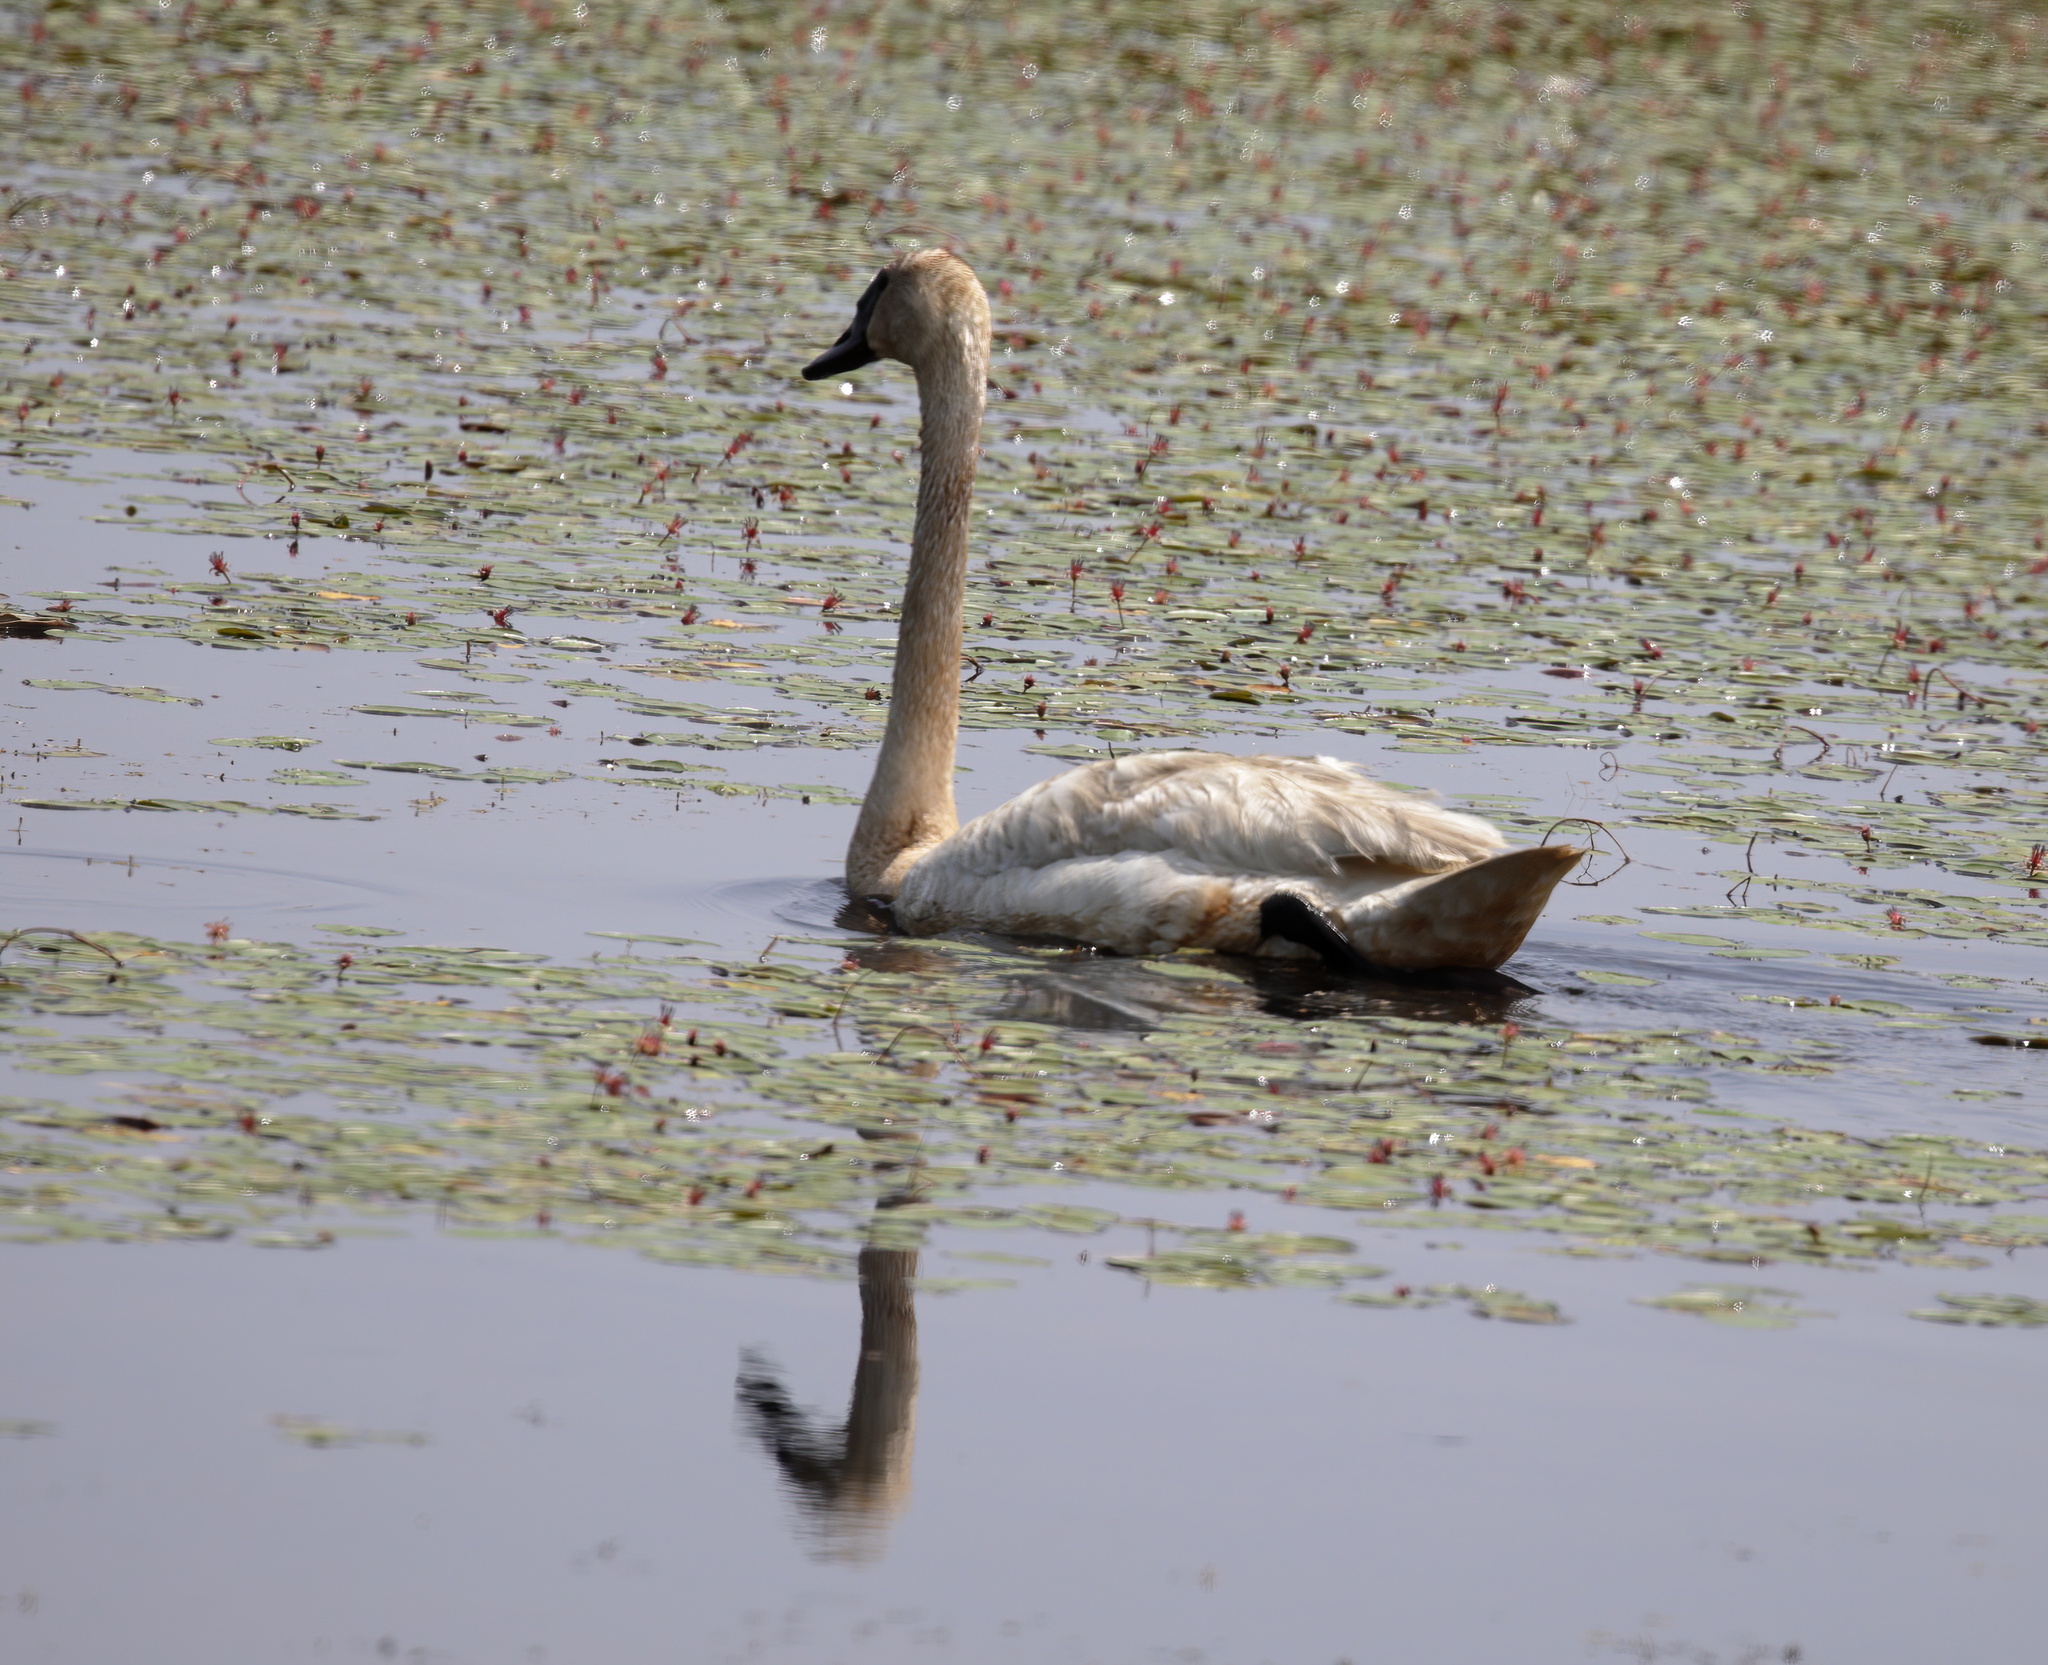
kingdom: Animalia
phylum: Chordata
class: Aves
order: Anseriformes
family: Anatidae
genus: Cygnus
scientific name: Cygnus buccinator
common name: Trumpeter swan
